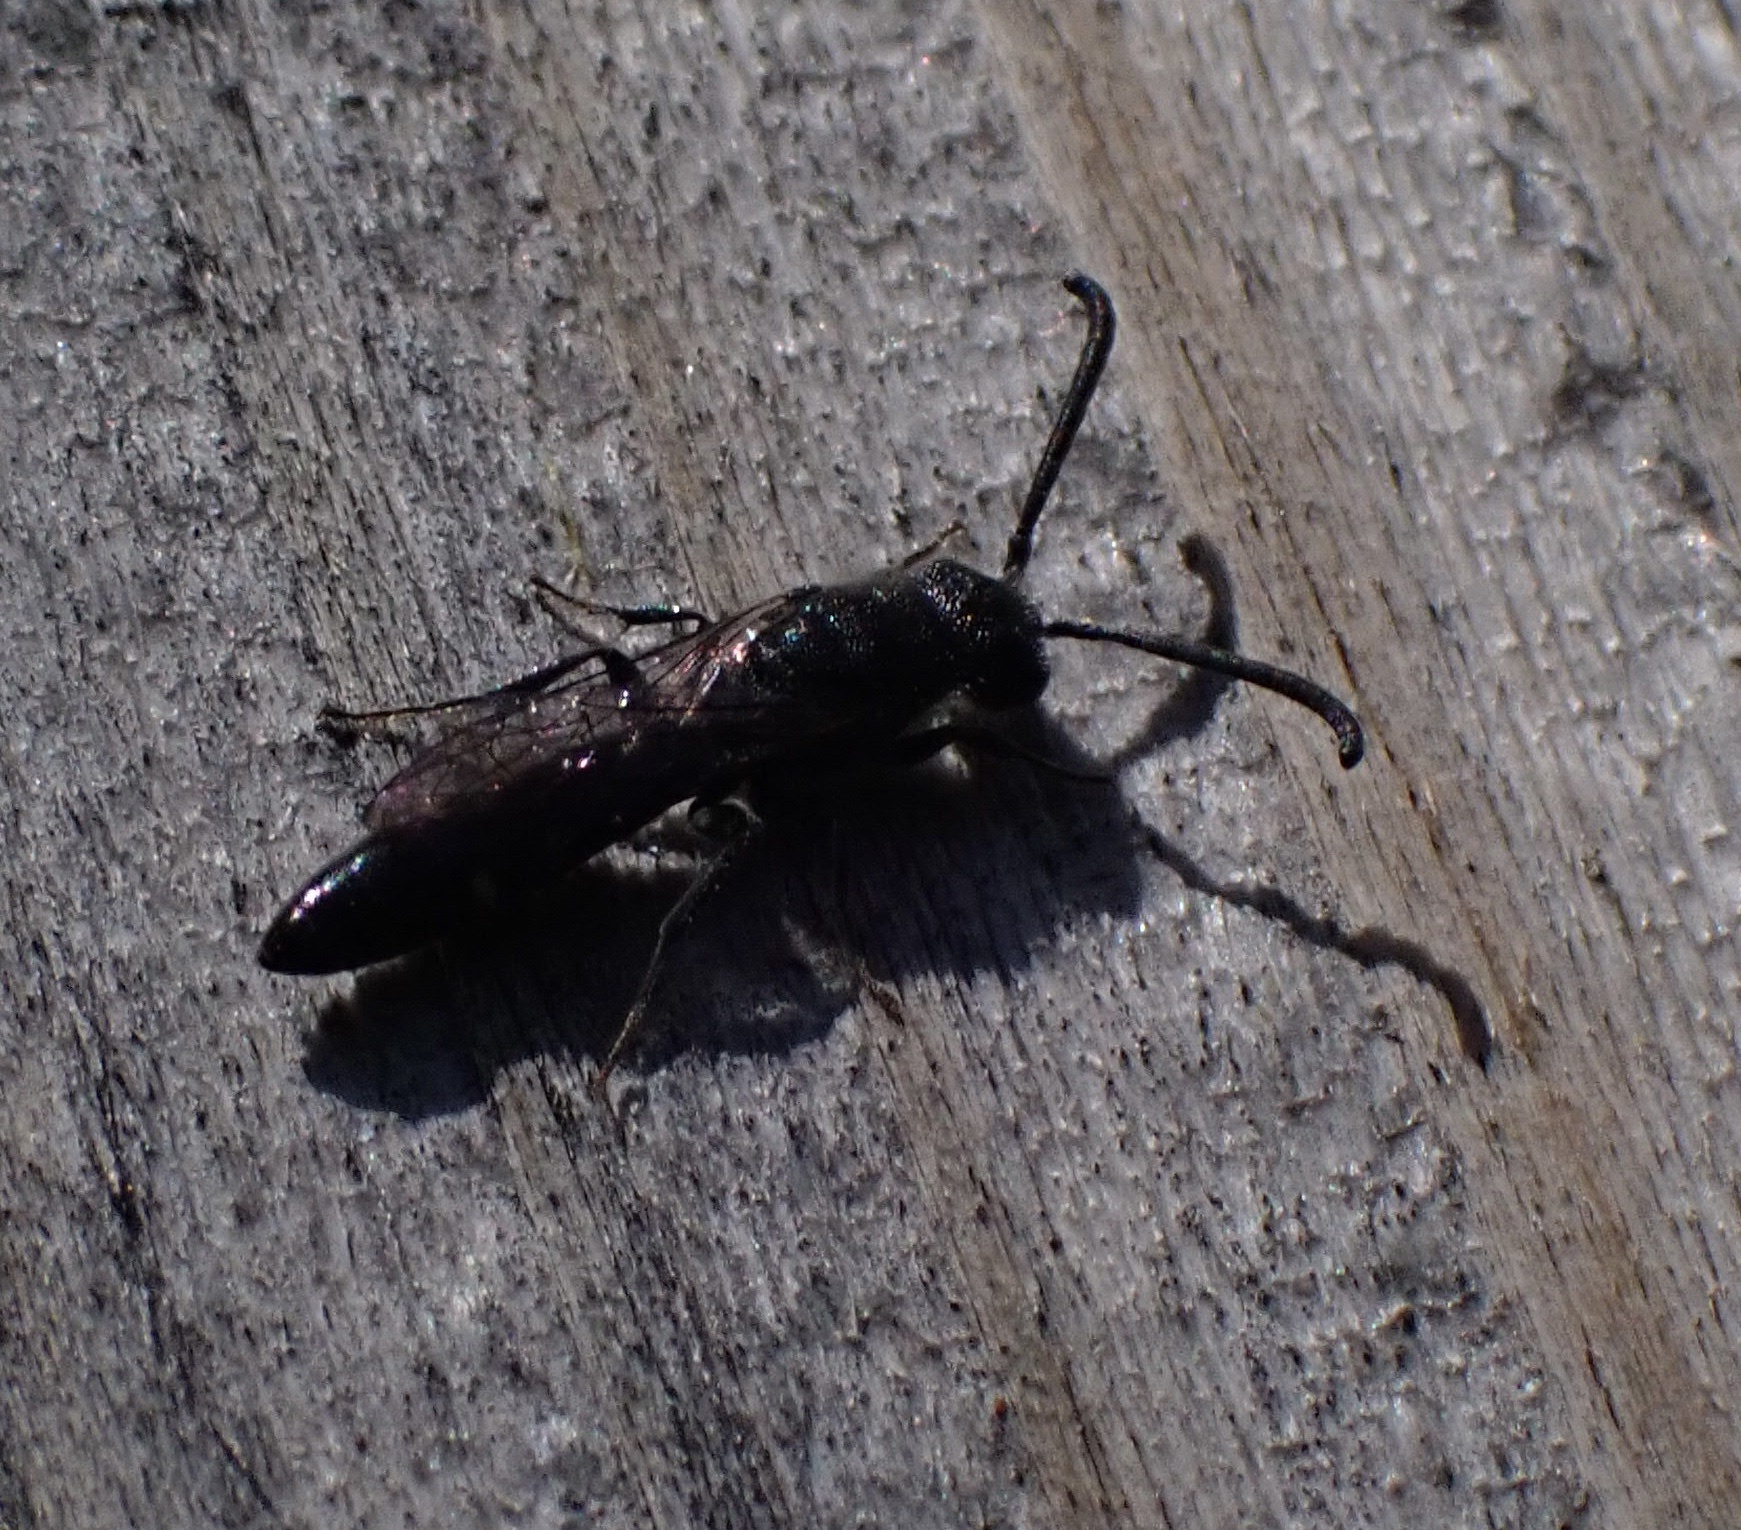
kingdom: Animalia
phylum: Arthropoda
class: Insecta
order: Hymenoptera
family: Sapygidae
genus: Sapyga
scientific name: Sapyga quinquepunctata
